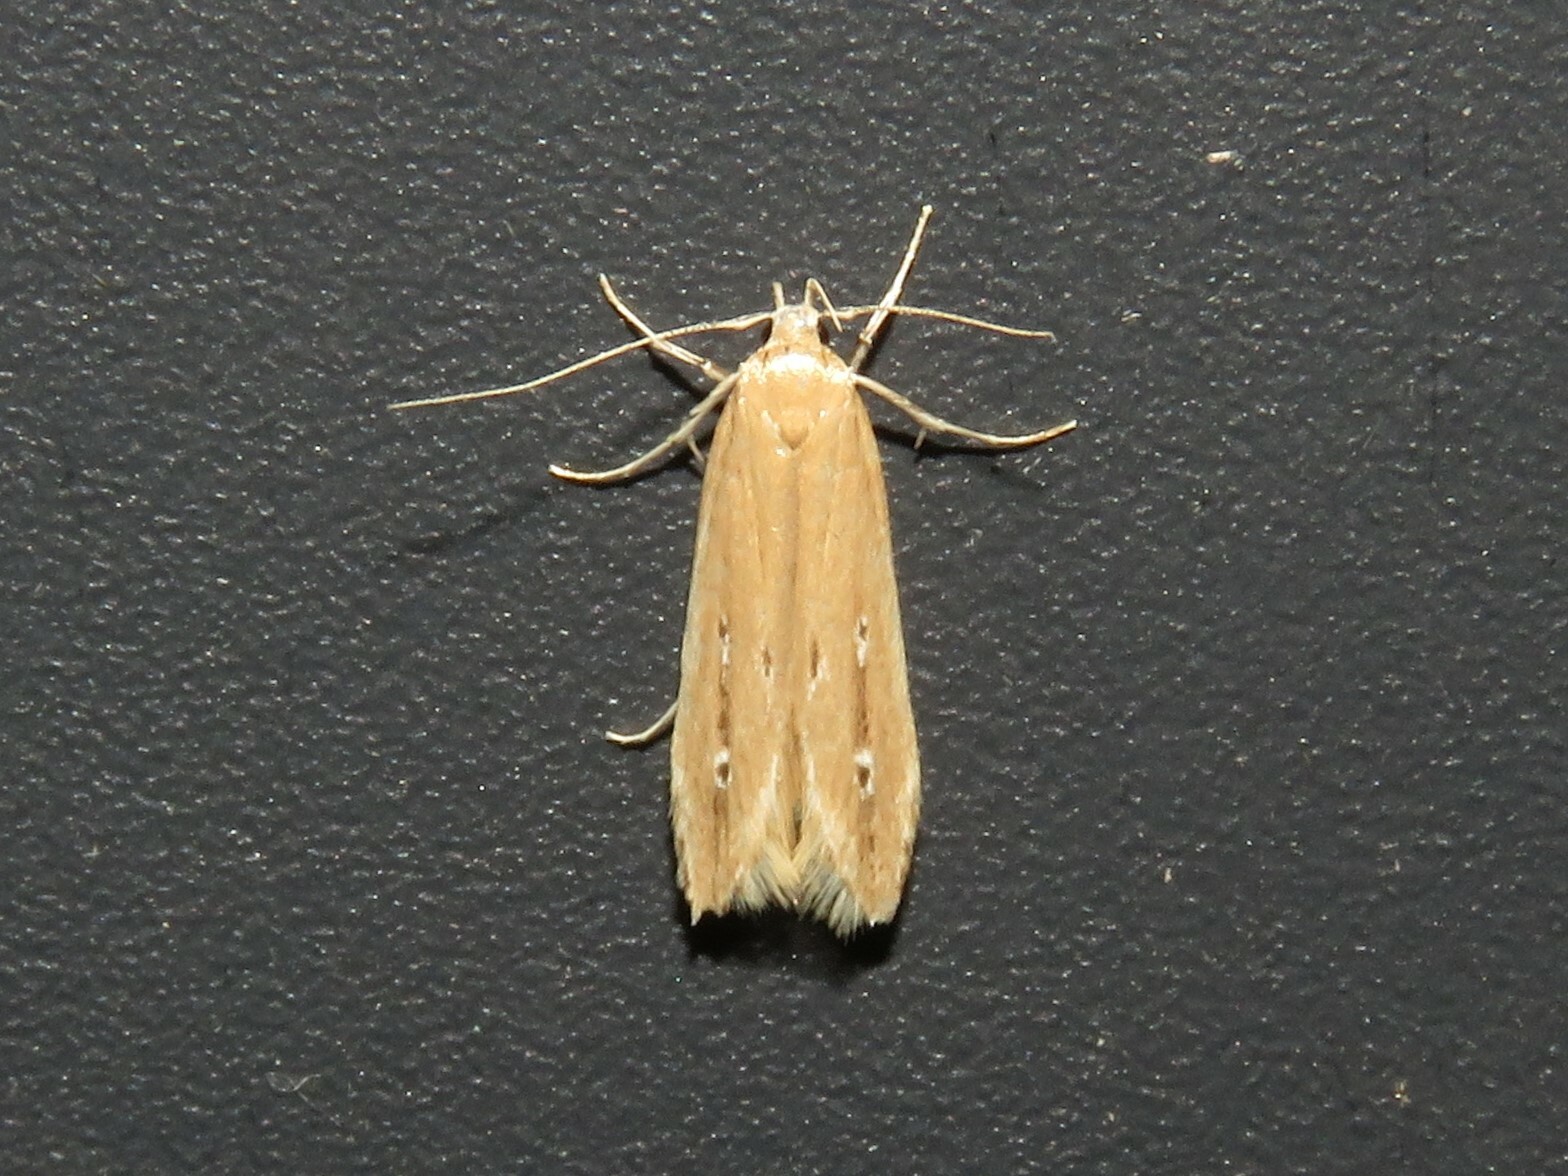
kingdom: Animalia
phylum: Arthropoda
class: Insecta
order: Lepidoptera
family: Cosmopterigidae
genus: Limnaecia
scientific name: Limnaecia phragmitella
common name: Bulrush cosmet
